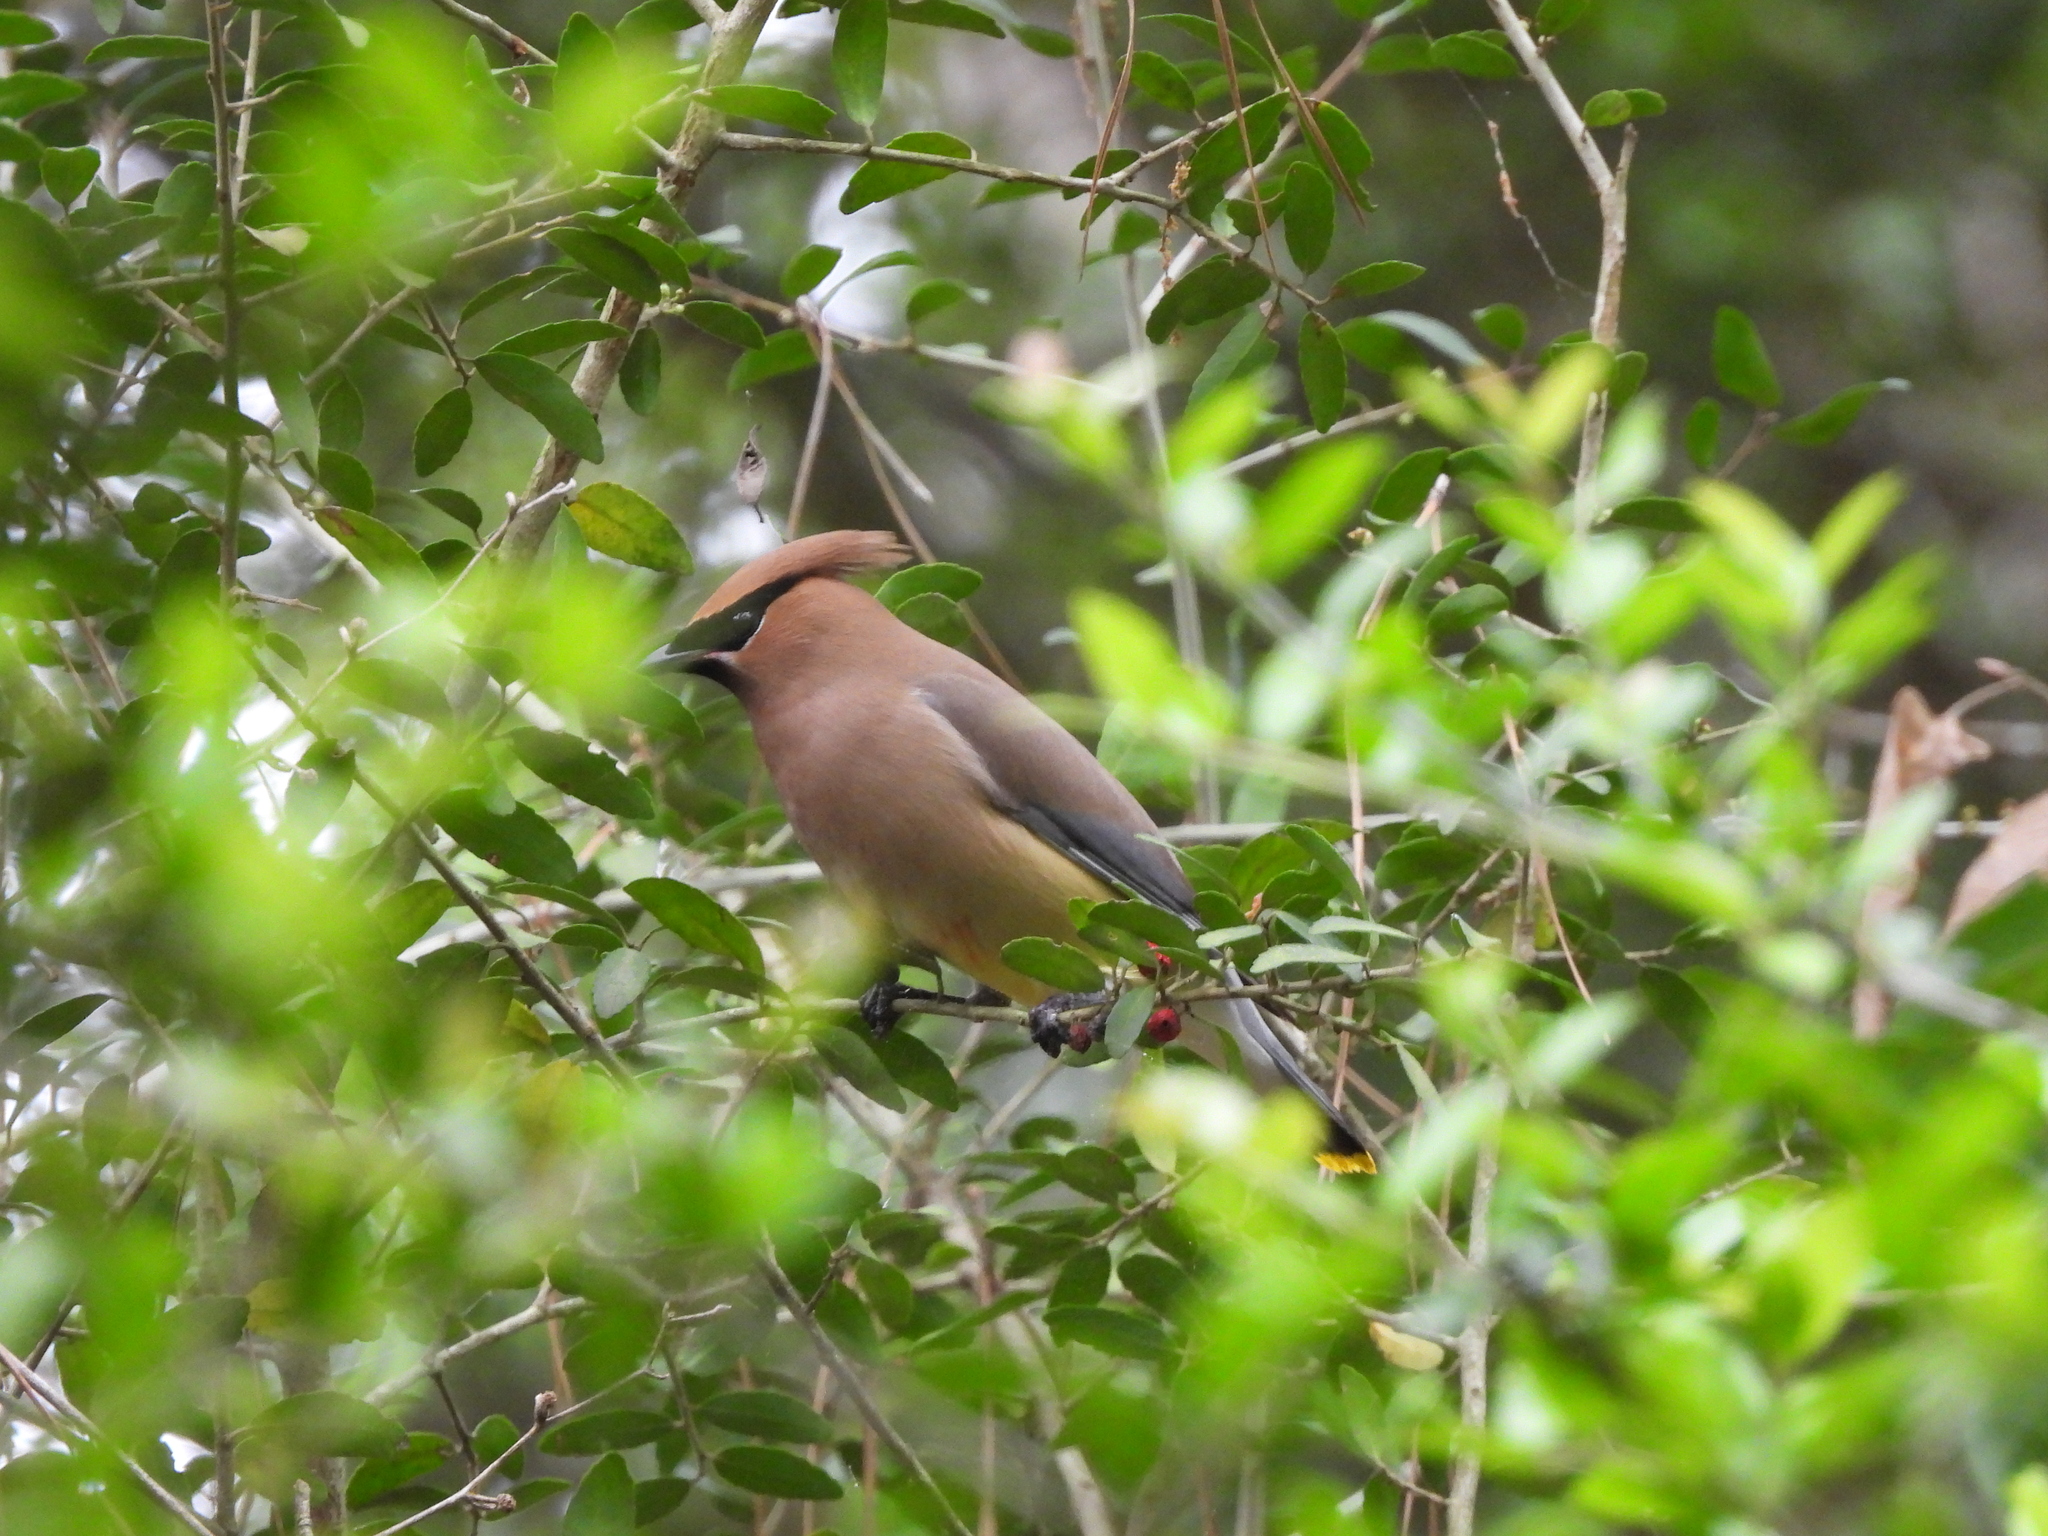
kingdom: Animalia
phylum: Chordata
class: Aves
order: Passeriformes
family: Bombycillidae
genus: Bombycilla
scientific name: Bombycilla cedrorum
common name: Cedar waxwing
